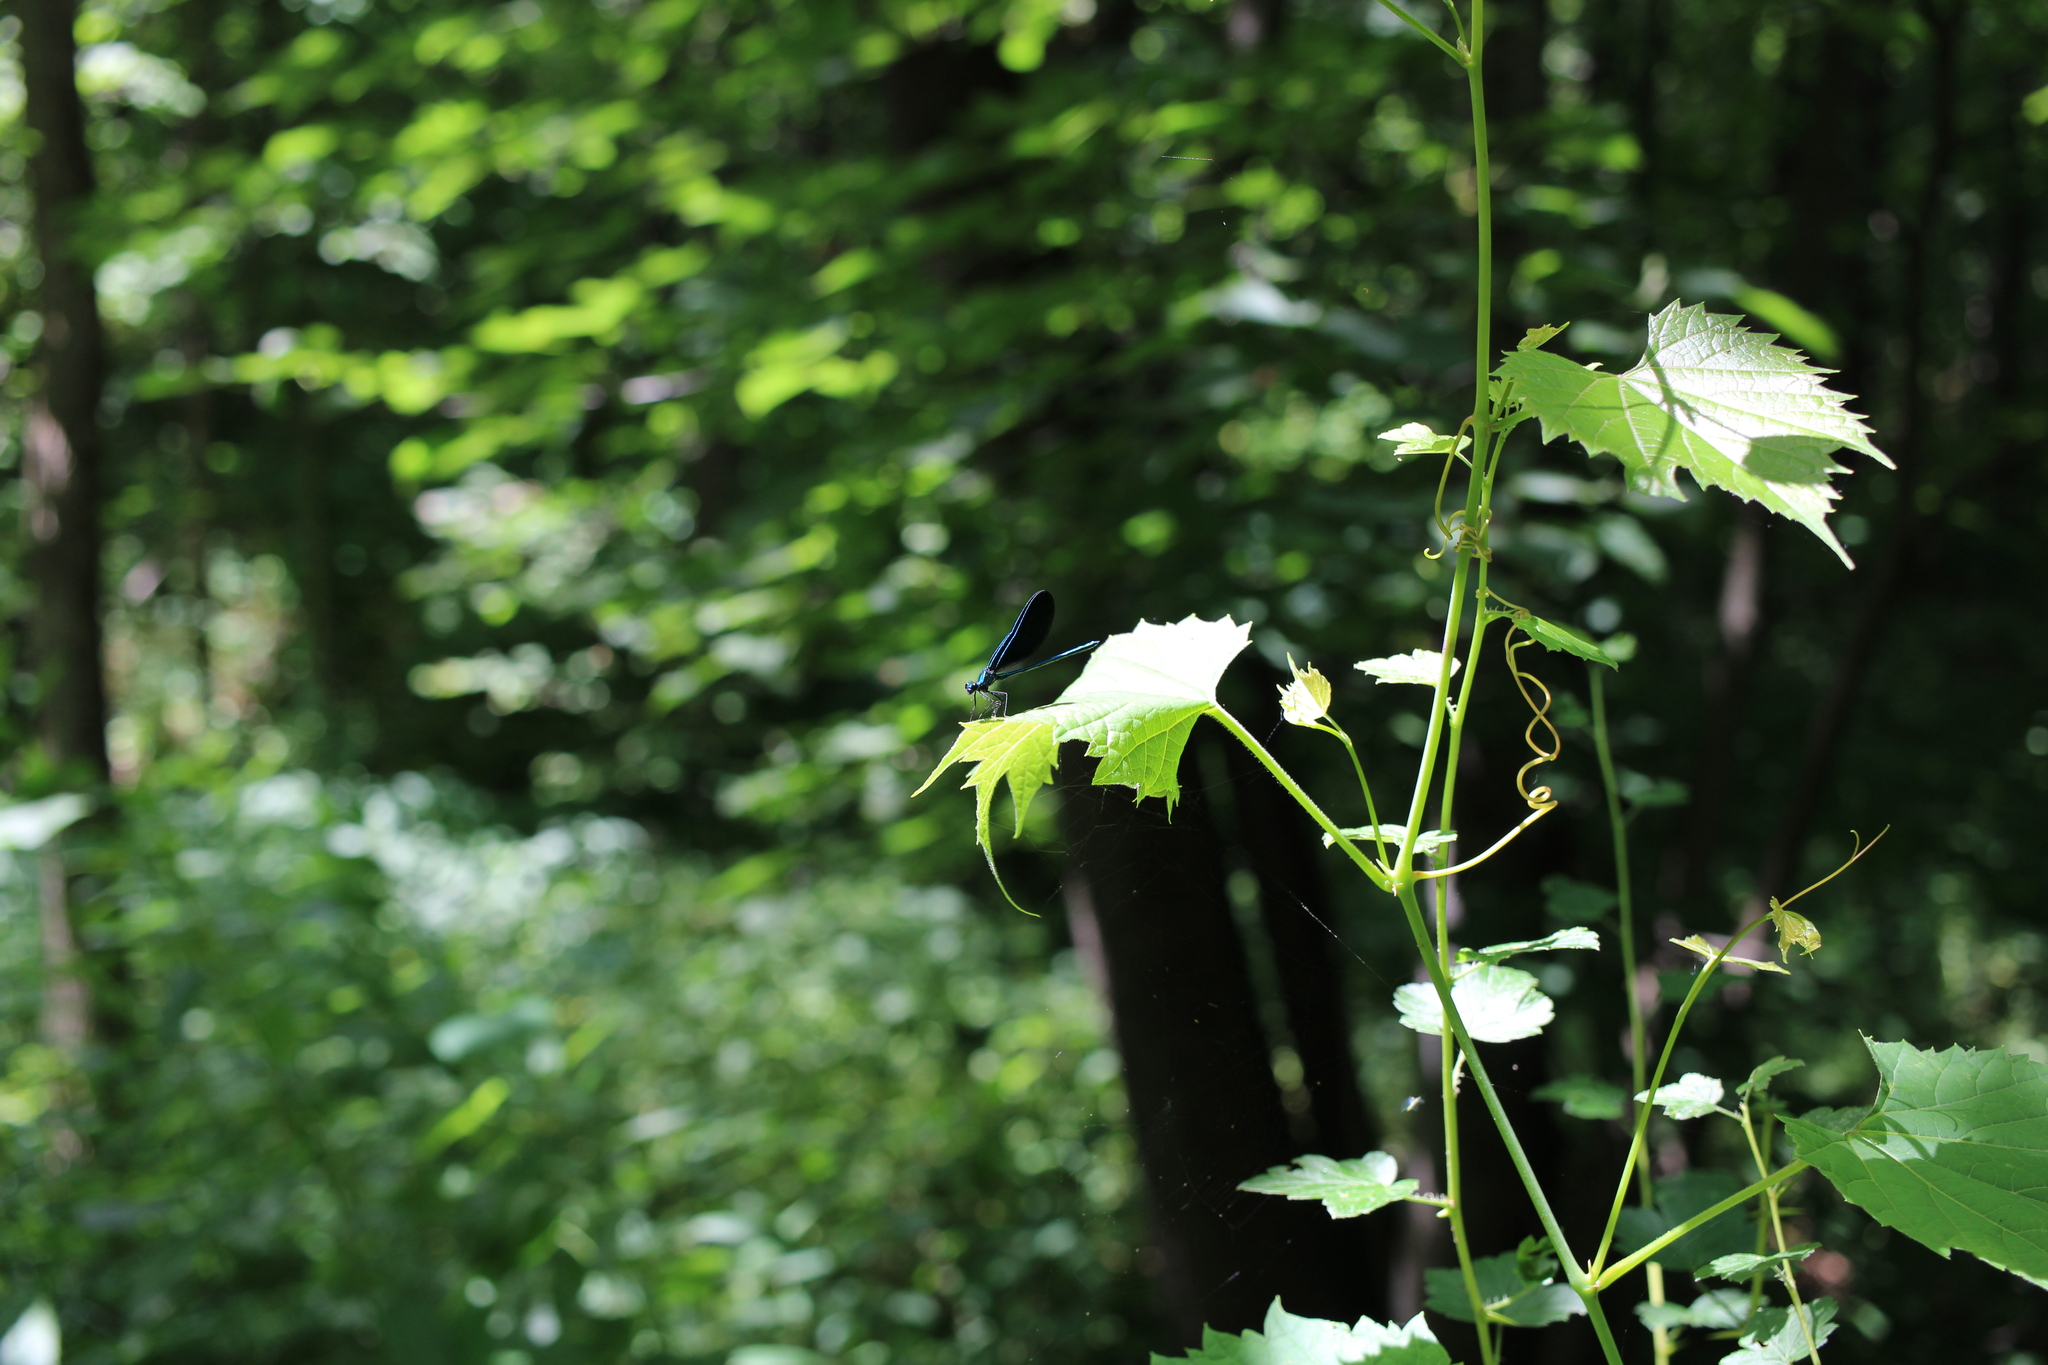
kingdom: Animalia
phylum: Arthropoda
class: Insecta
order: Odonata
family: Calopterygidae
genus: Calopteryx
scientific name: Calopteryx maculata
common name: Ebony jewelwing
